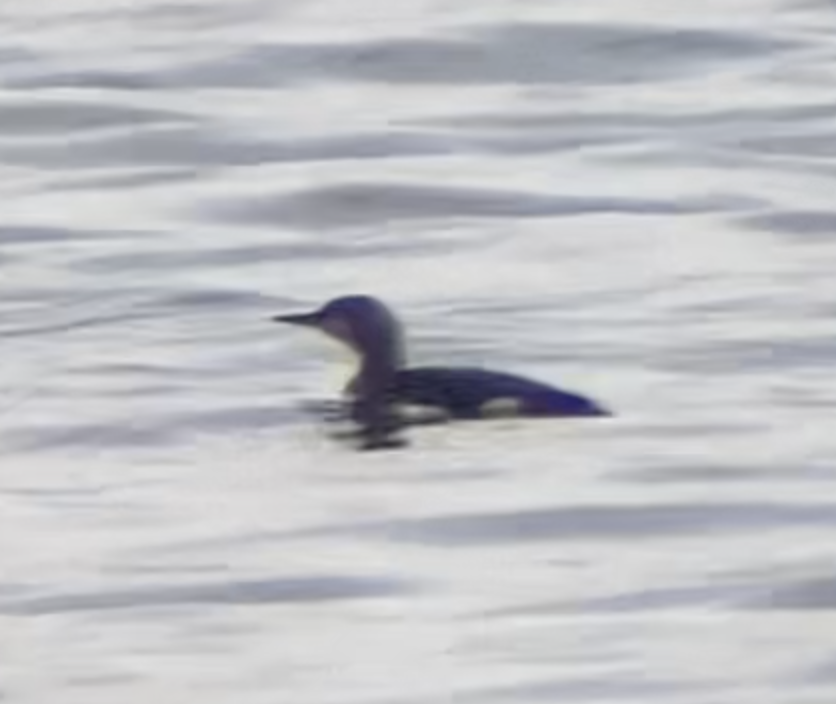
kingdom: Animalia
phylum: Chordata
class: Aves
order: Gaviiformes
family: Gaviidae
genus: Gavia
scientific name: Gavia arctica
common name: Black-throated loon
